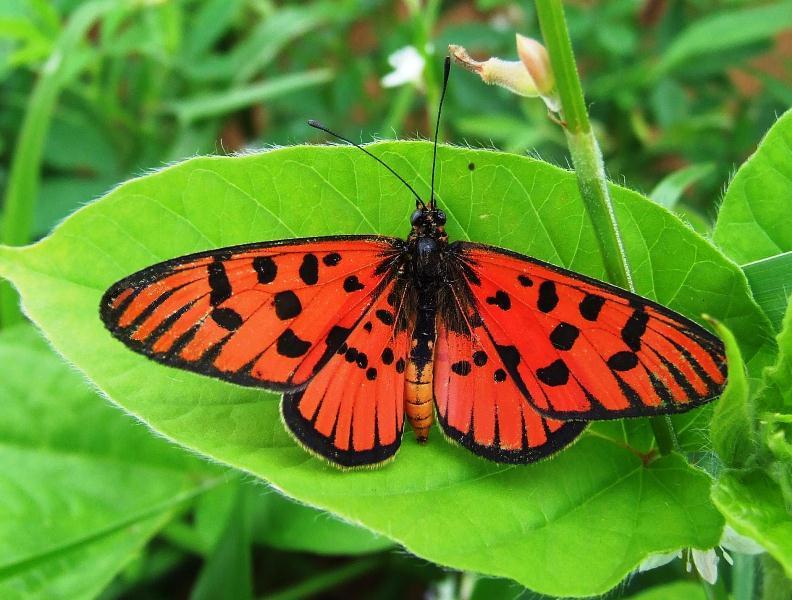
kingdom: Animalia
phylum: Arthropoda
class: Insecta
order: Lepidoptera
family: Nymphalidae
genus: Rubraea
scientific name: Rubraea
